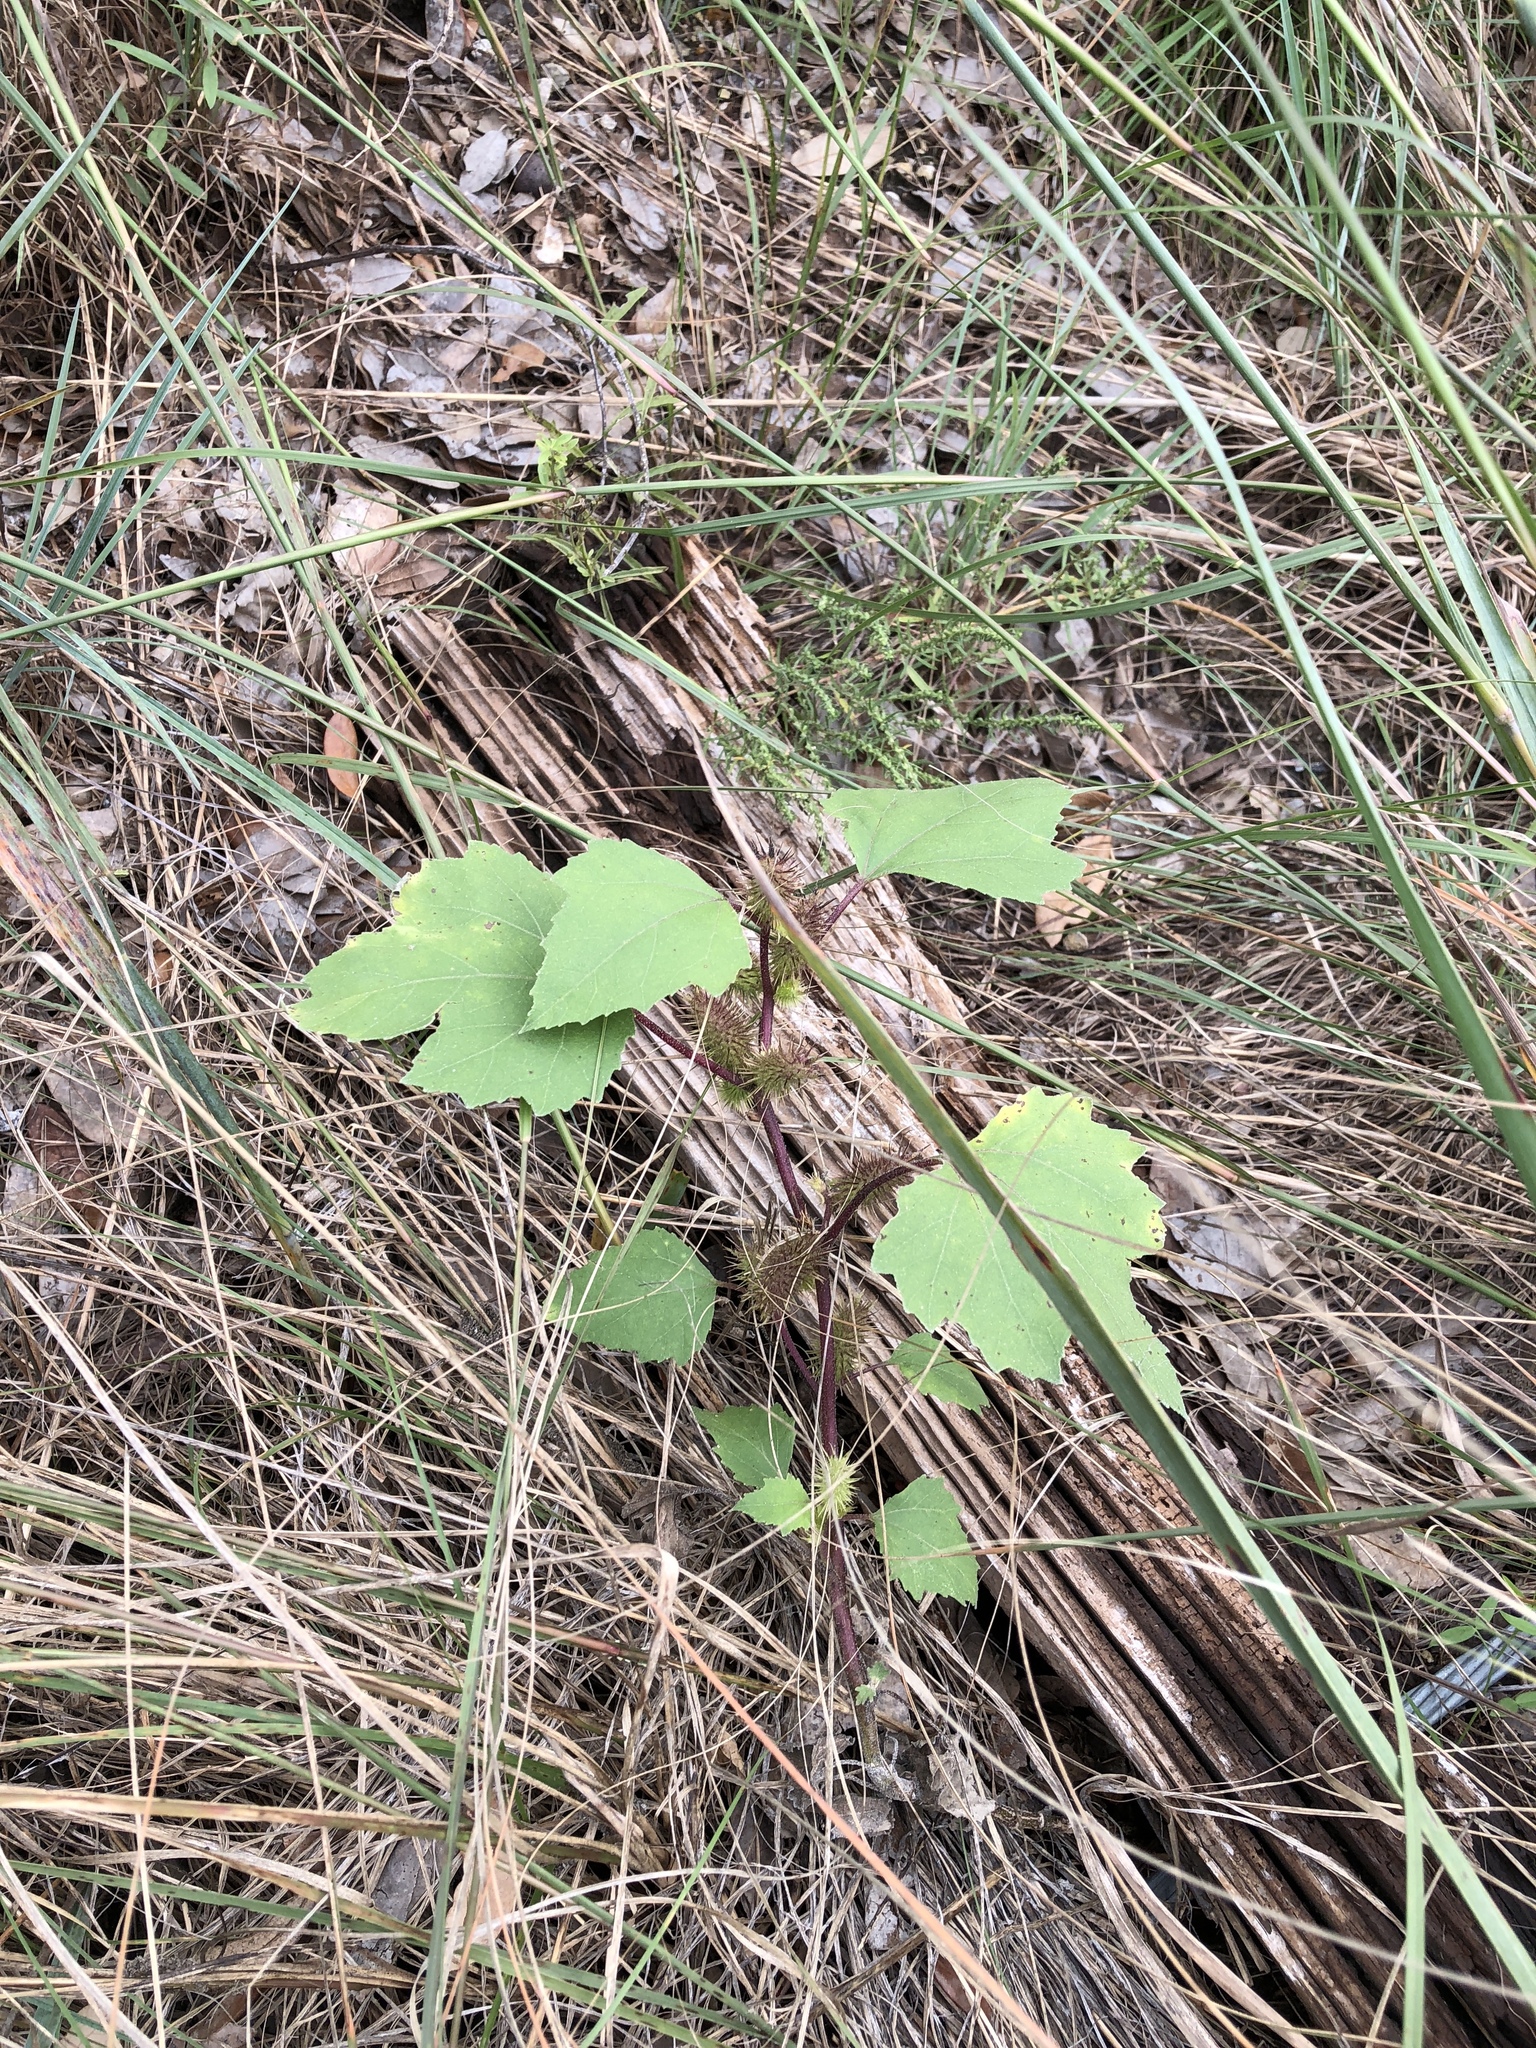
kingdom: Plantae
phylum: Tracheophyta
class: Magnoliopsida
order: Asterales
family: Asteraceae
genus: Xanthium
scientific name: Xanthium strumarium
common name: Rough cocklebur
